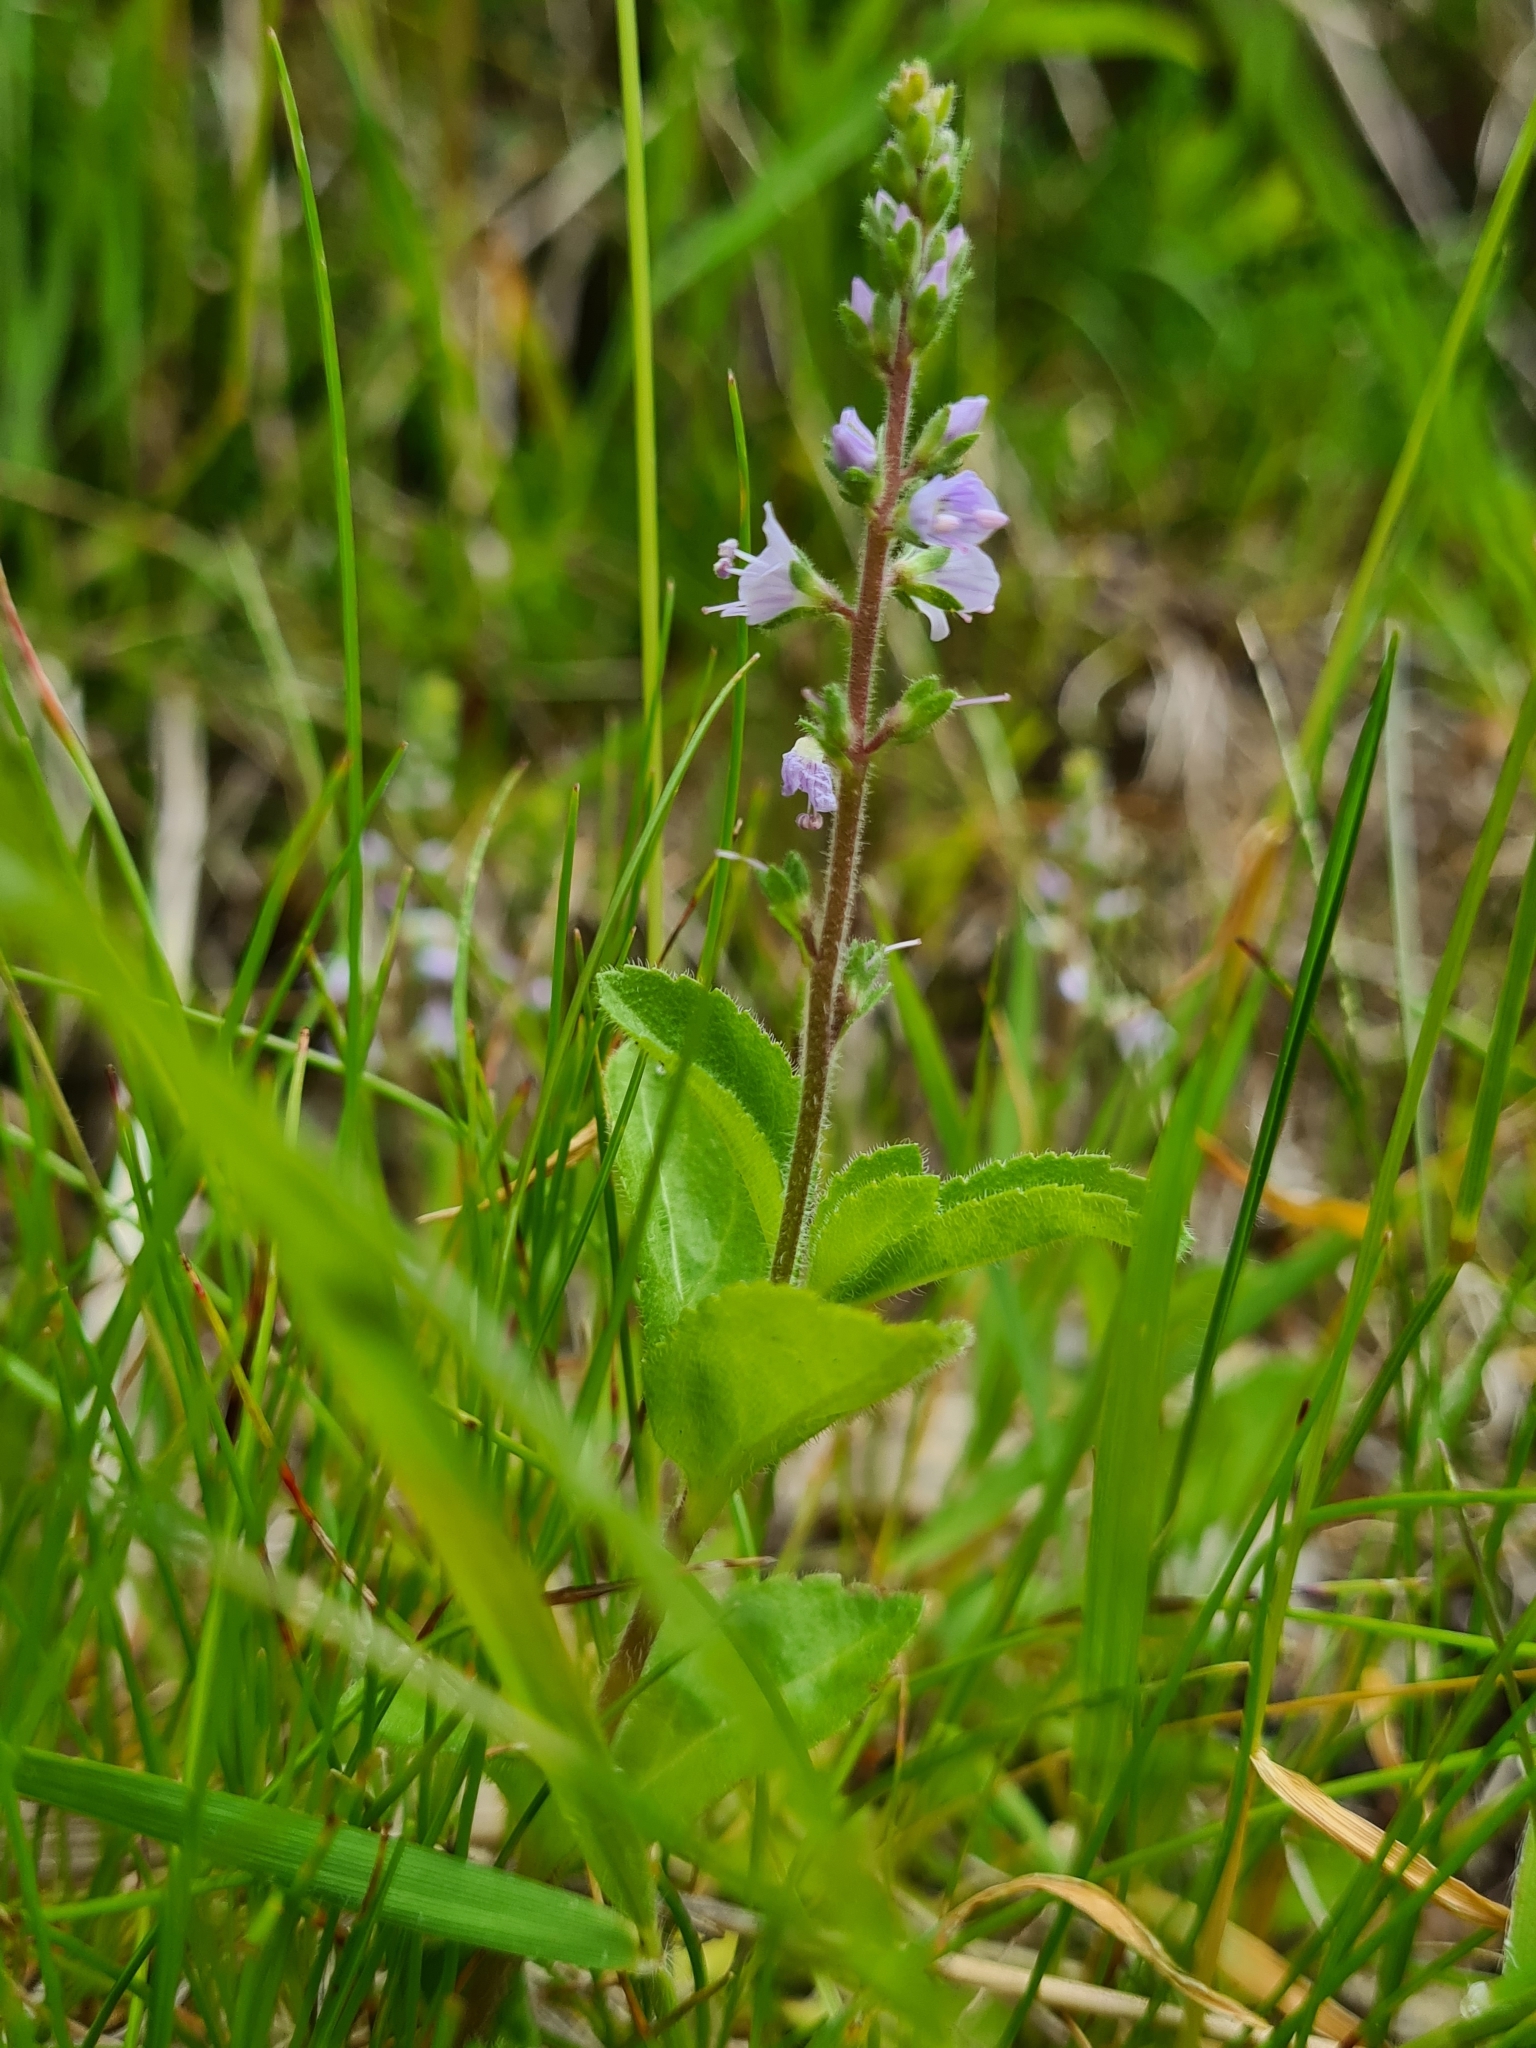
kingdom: Plantae
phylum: Tracheophyta
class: Magnoliopsida
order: Lamiales
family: Plantaginaceae
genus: Veronica
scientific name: Veronica officinalis
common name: Common speedwell
